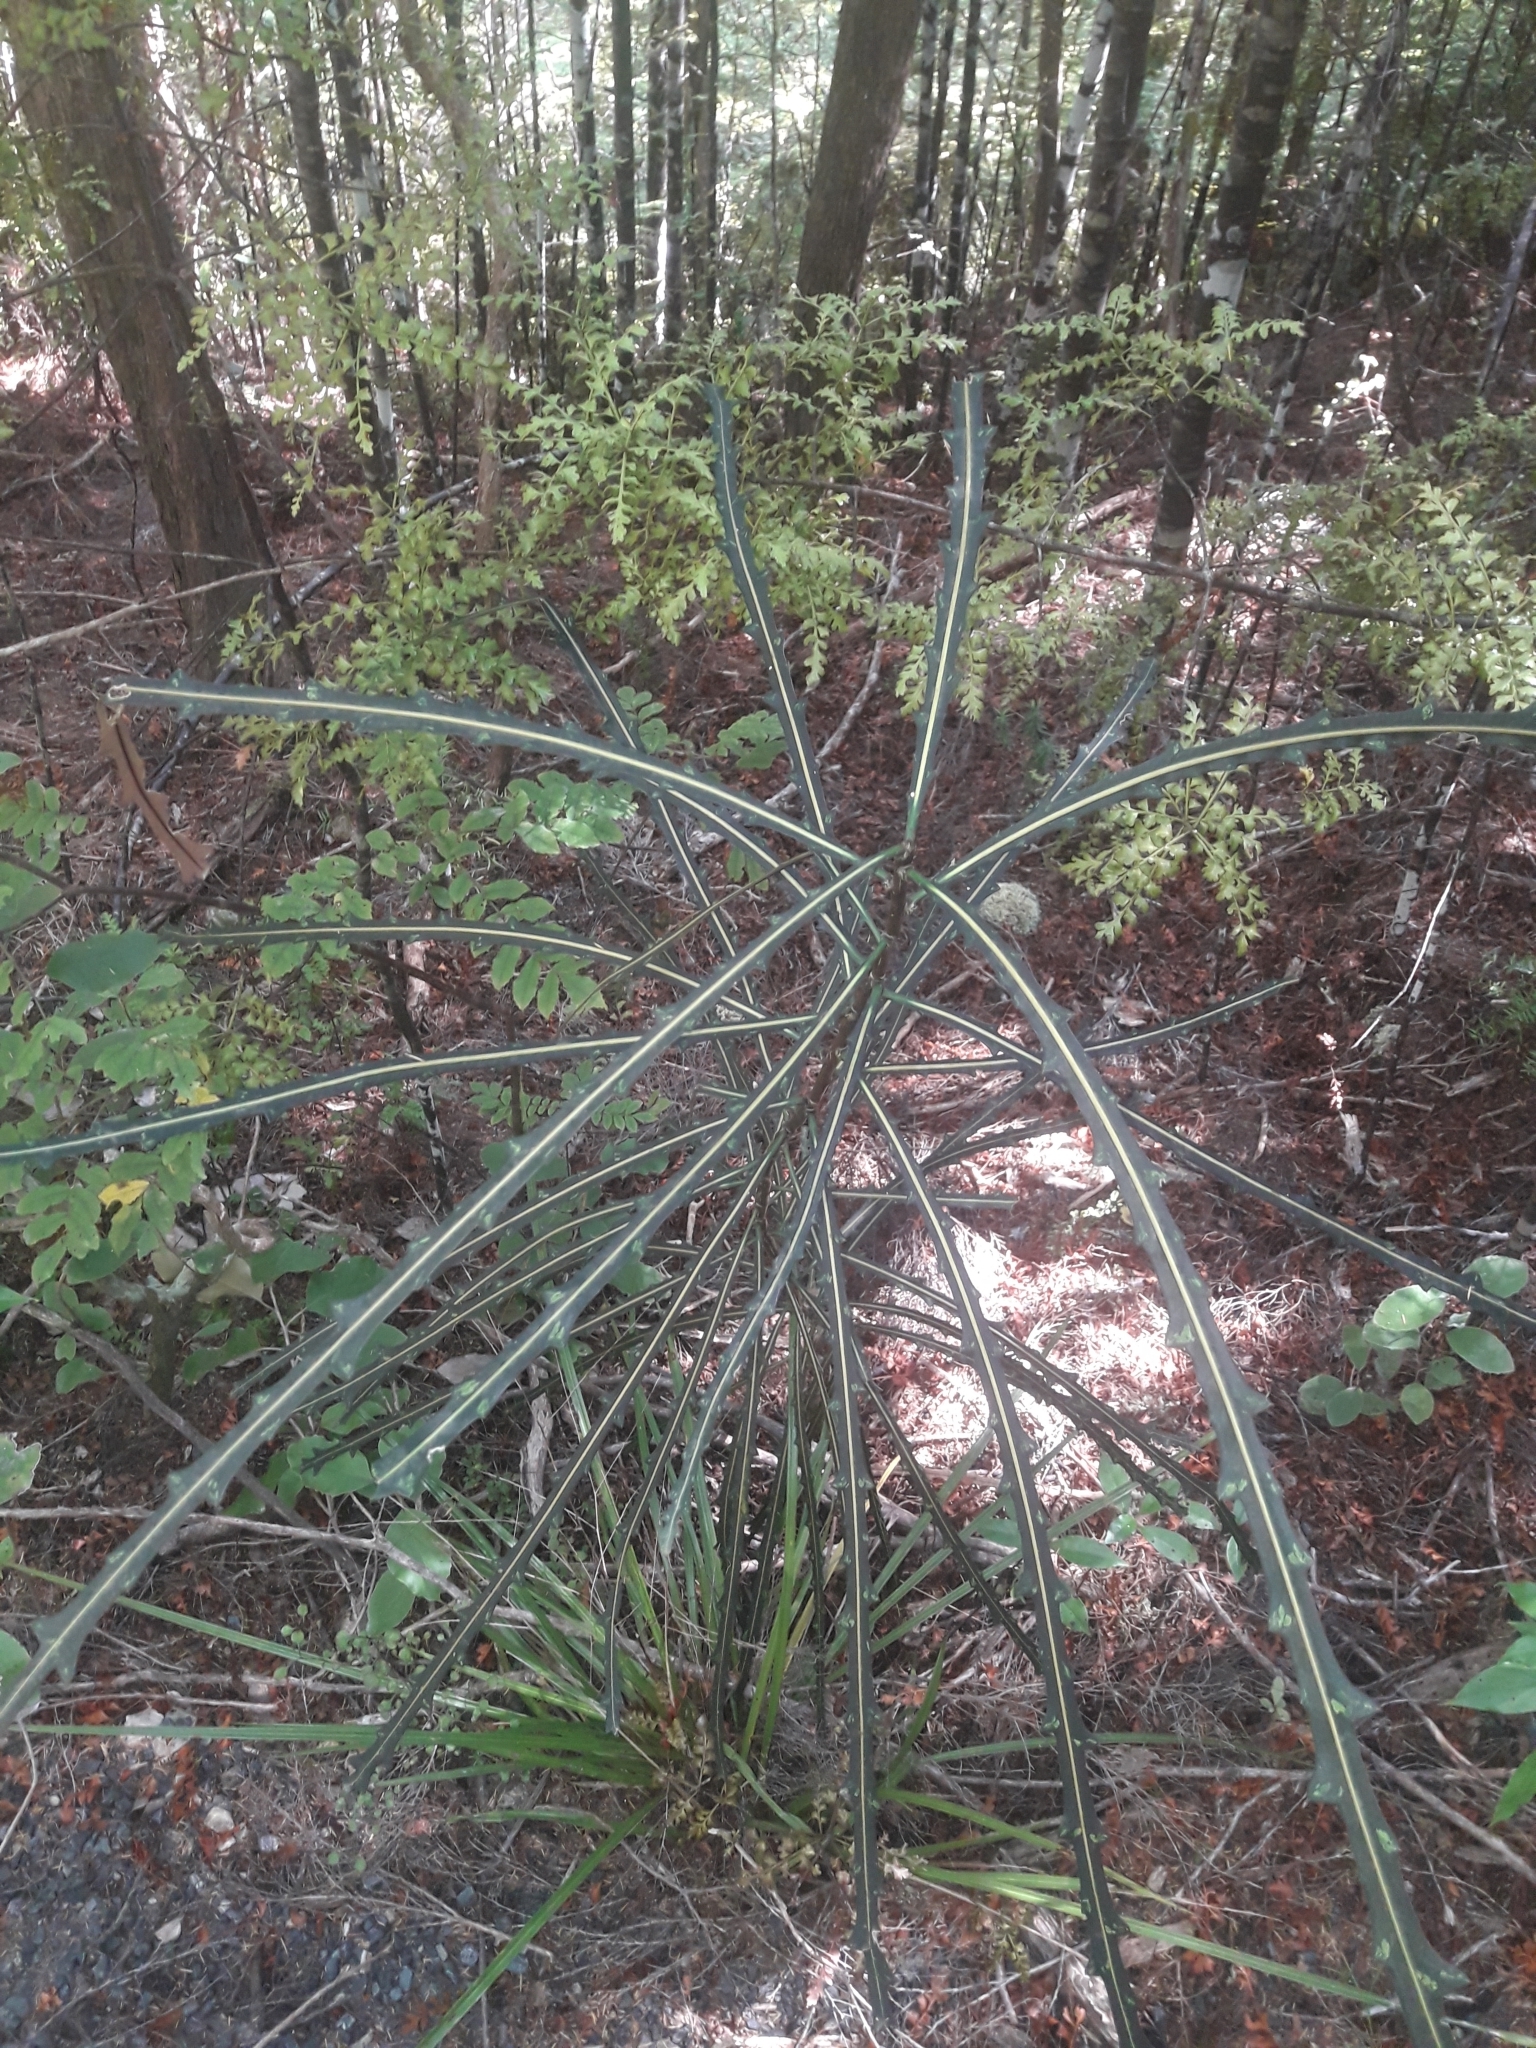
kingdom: Plantae
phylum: Tracheophyta
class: Magnoliopsida
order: Apiales
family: Araliaceae
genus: Pseudopanax
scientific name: Pseudopanax crassifolius
